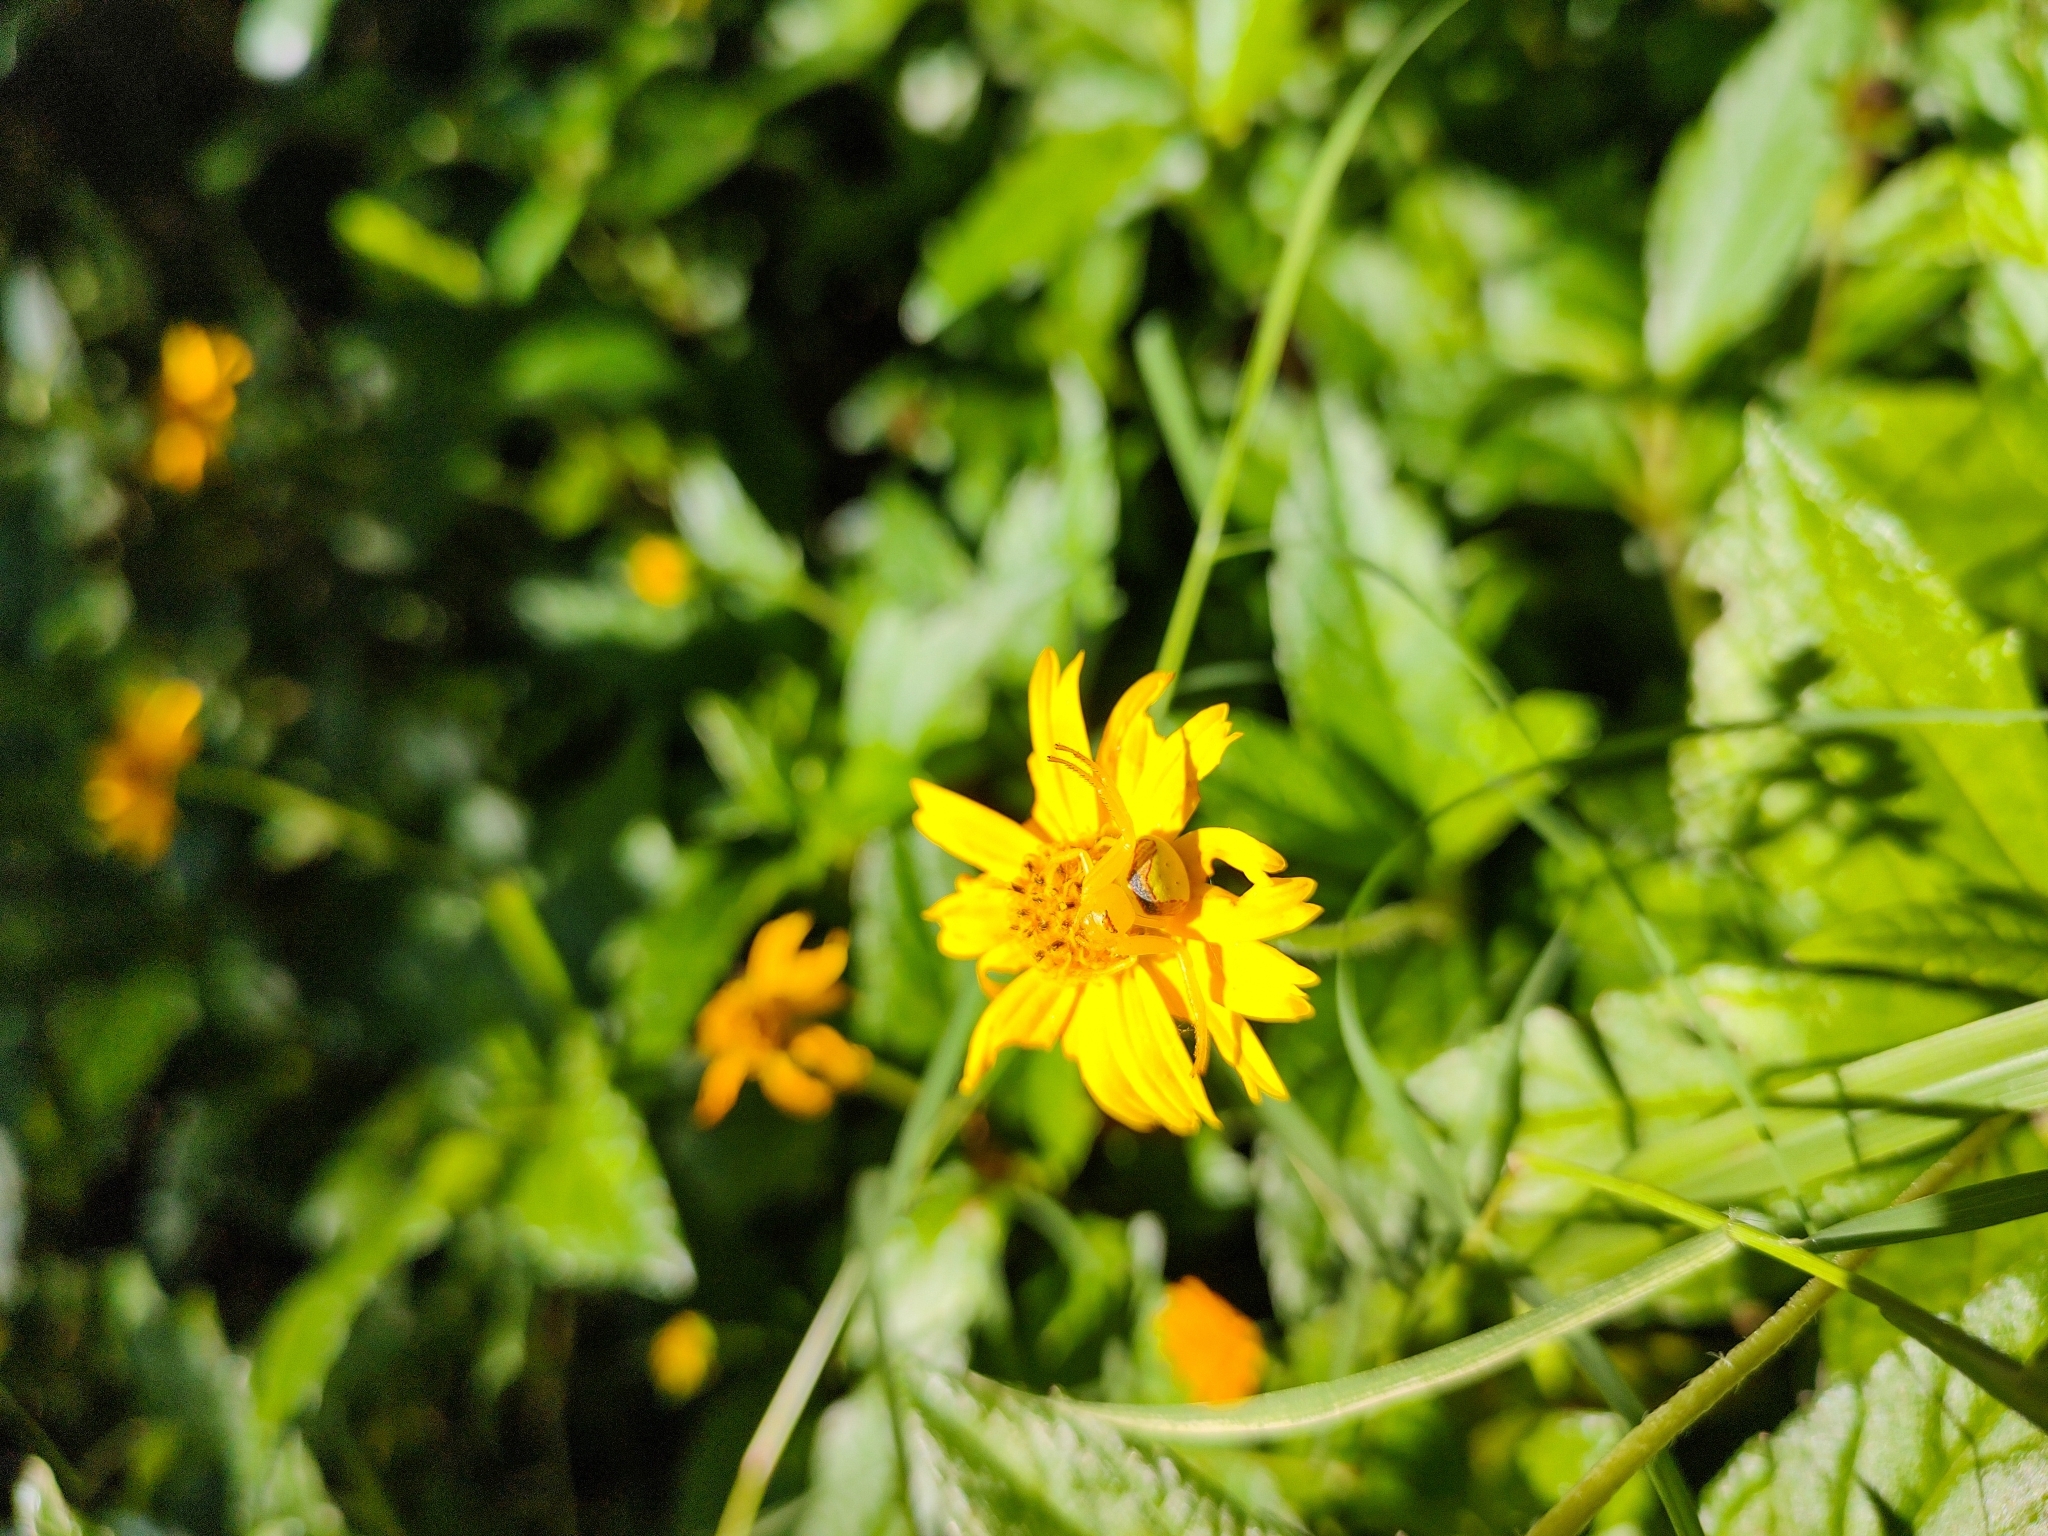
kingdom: Animalia
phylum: Arthropoda
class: Arachnida
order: Araneae
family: Thomisidae
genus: Misumenops
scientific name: Misumenops callinurus
